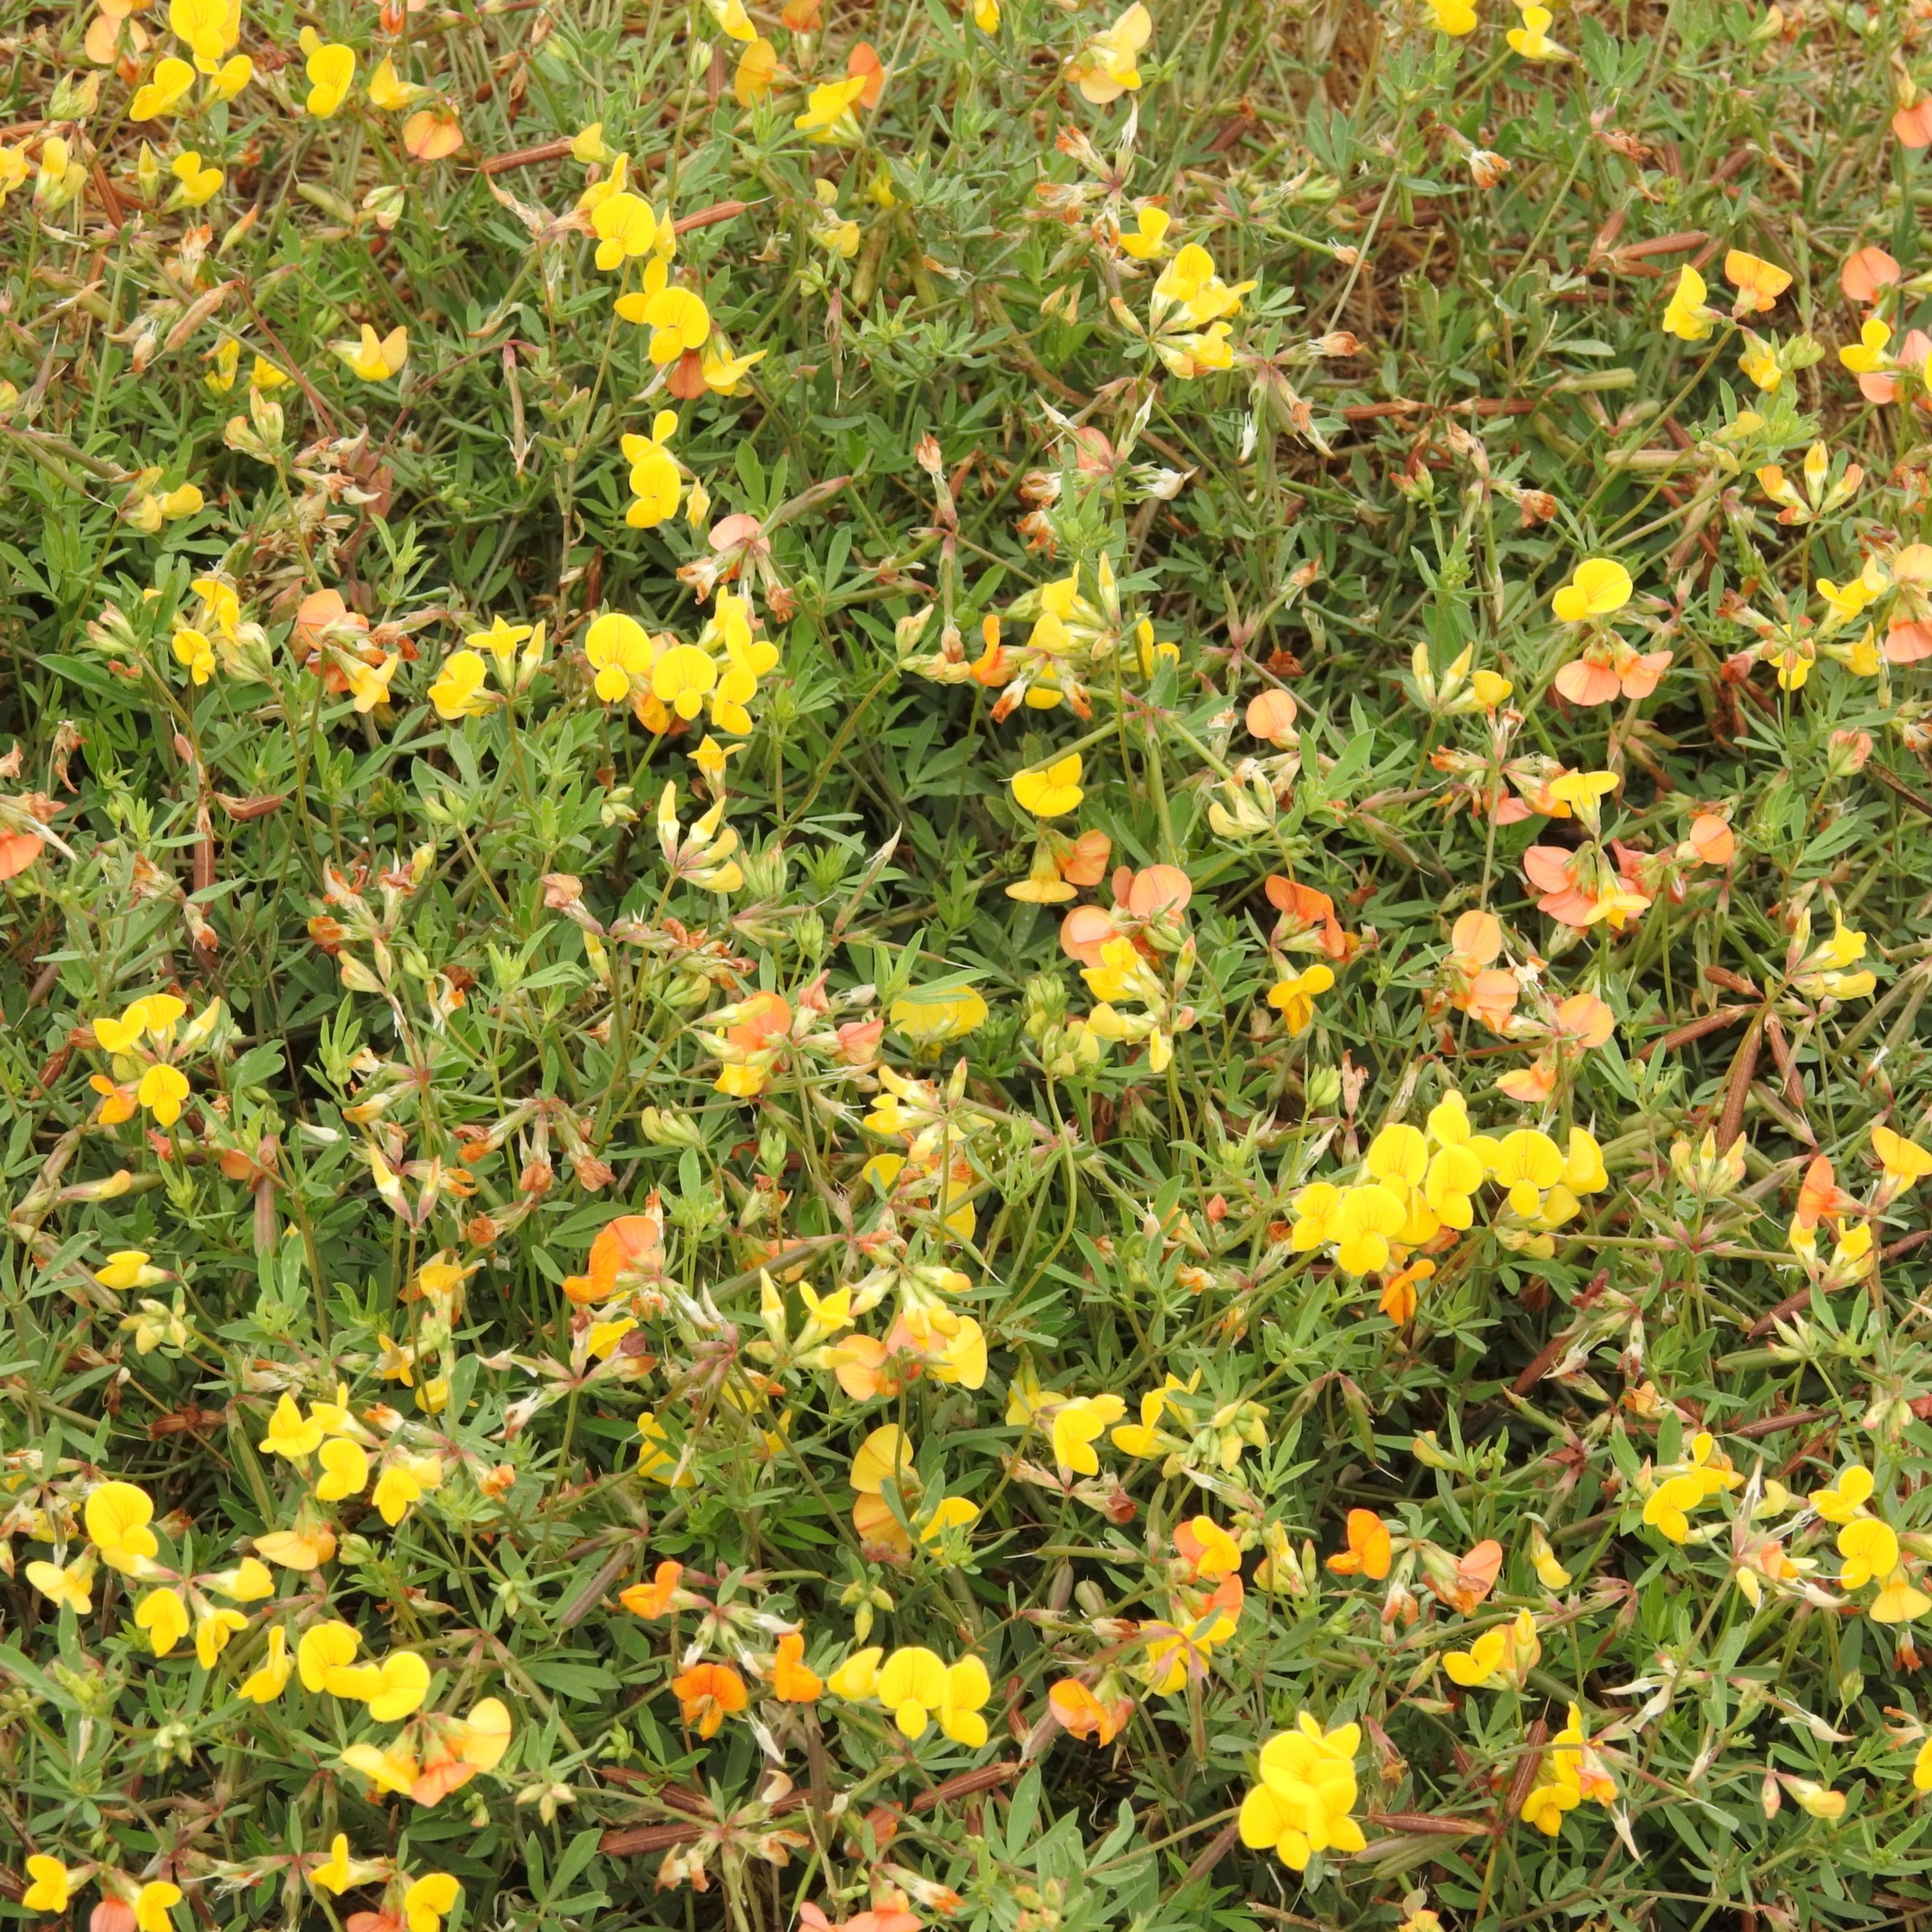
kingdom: Plantae
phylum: Tracheophyta
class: Magnoliopsida
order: Fabales
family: Fabaceae
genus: Lotus
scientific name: Lotus corniculatus
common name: Common bird's-foot-trefoil
